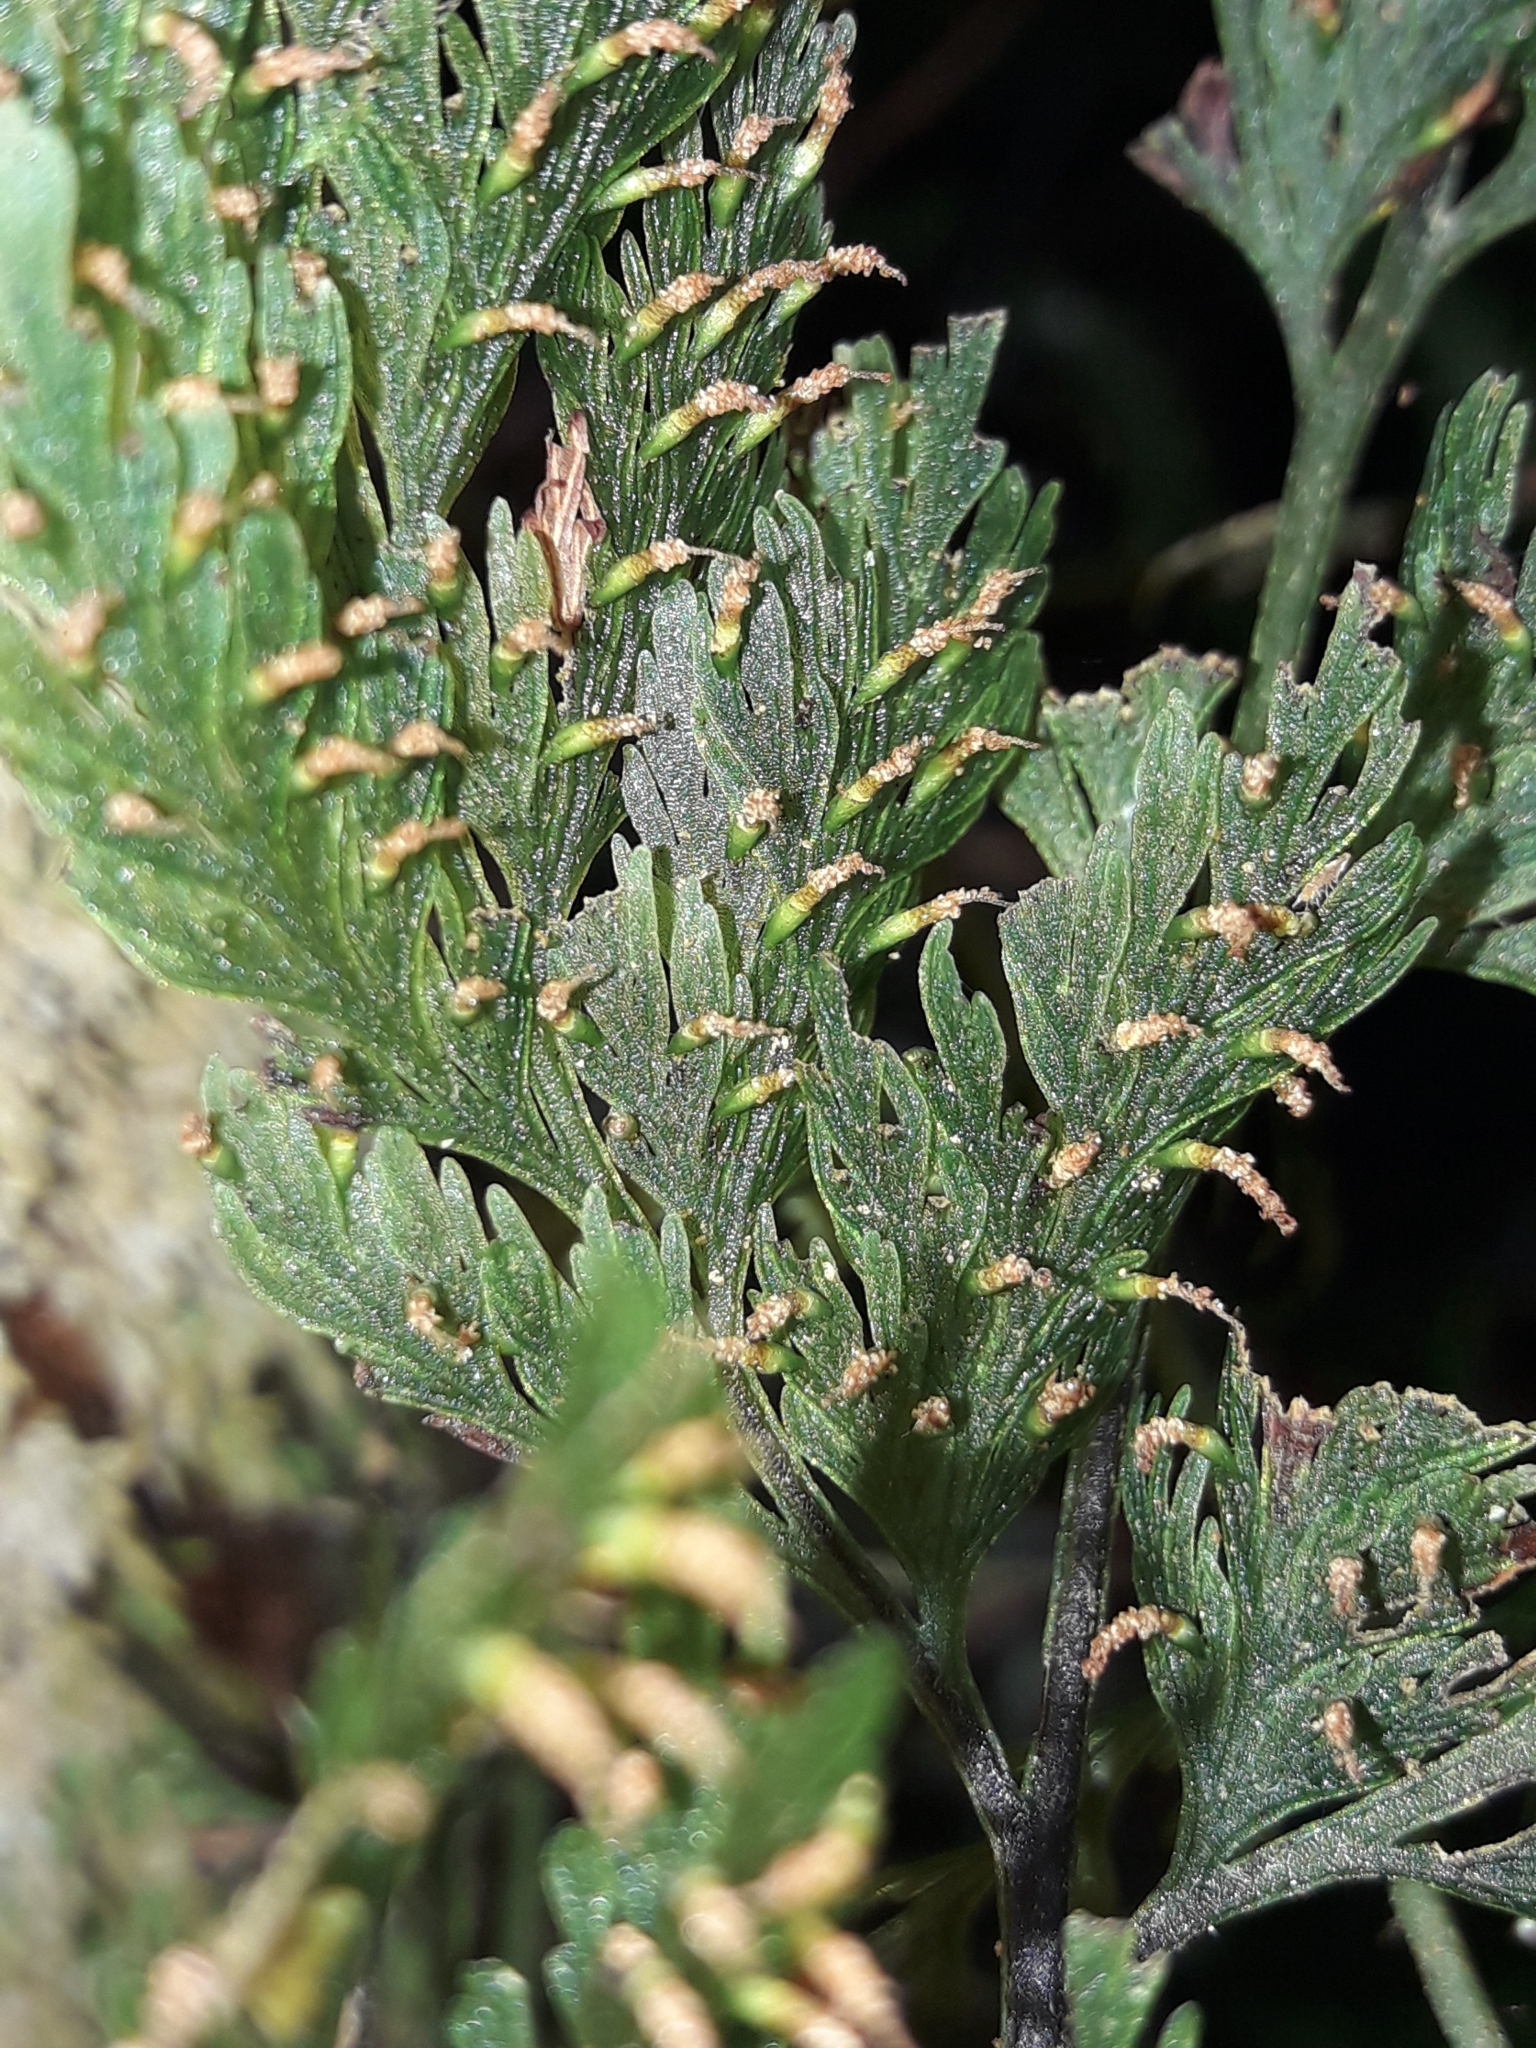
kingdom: Plantae
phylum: Tracheophyta
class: Polypodiopsida
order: Hymenophyllales
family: Hymenophyllaceae
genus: Abrodictyum
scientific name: Abrodictyum flavofuscum
